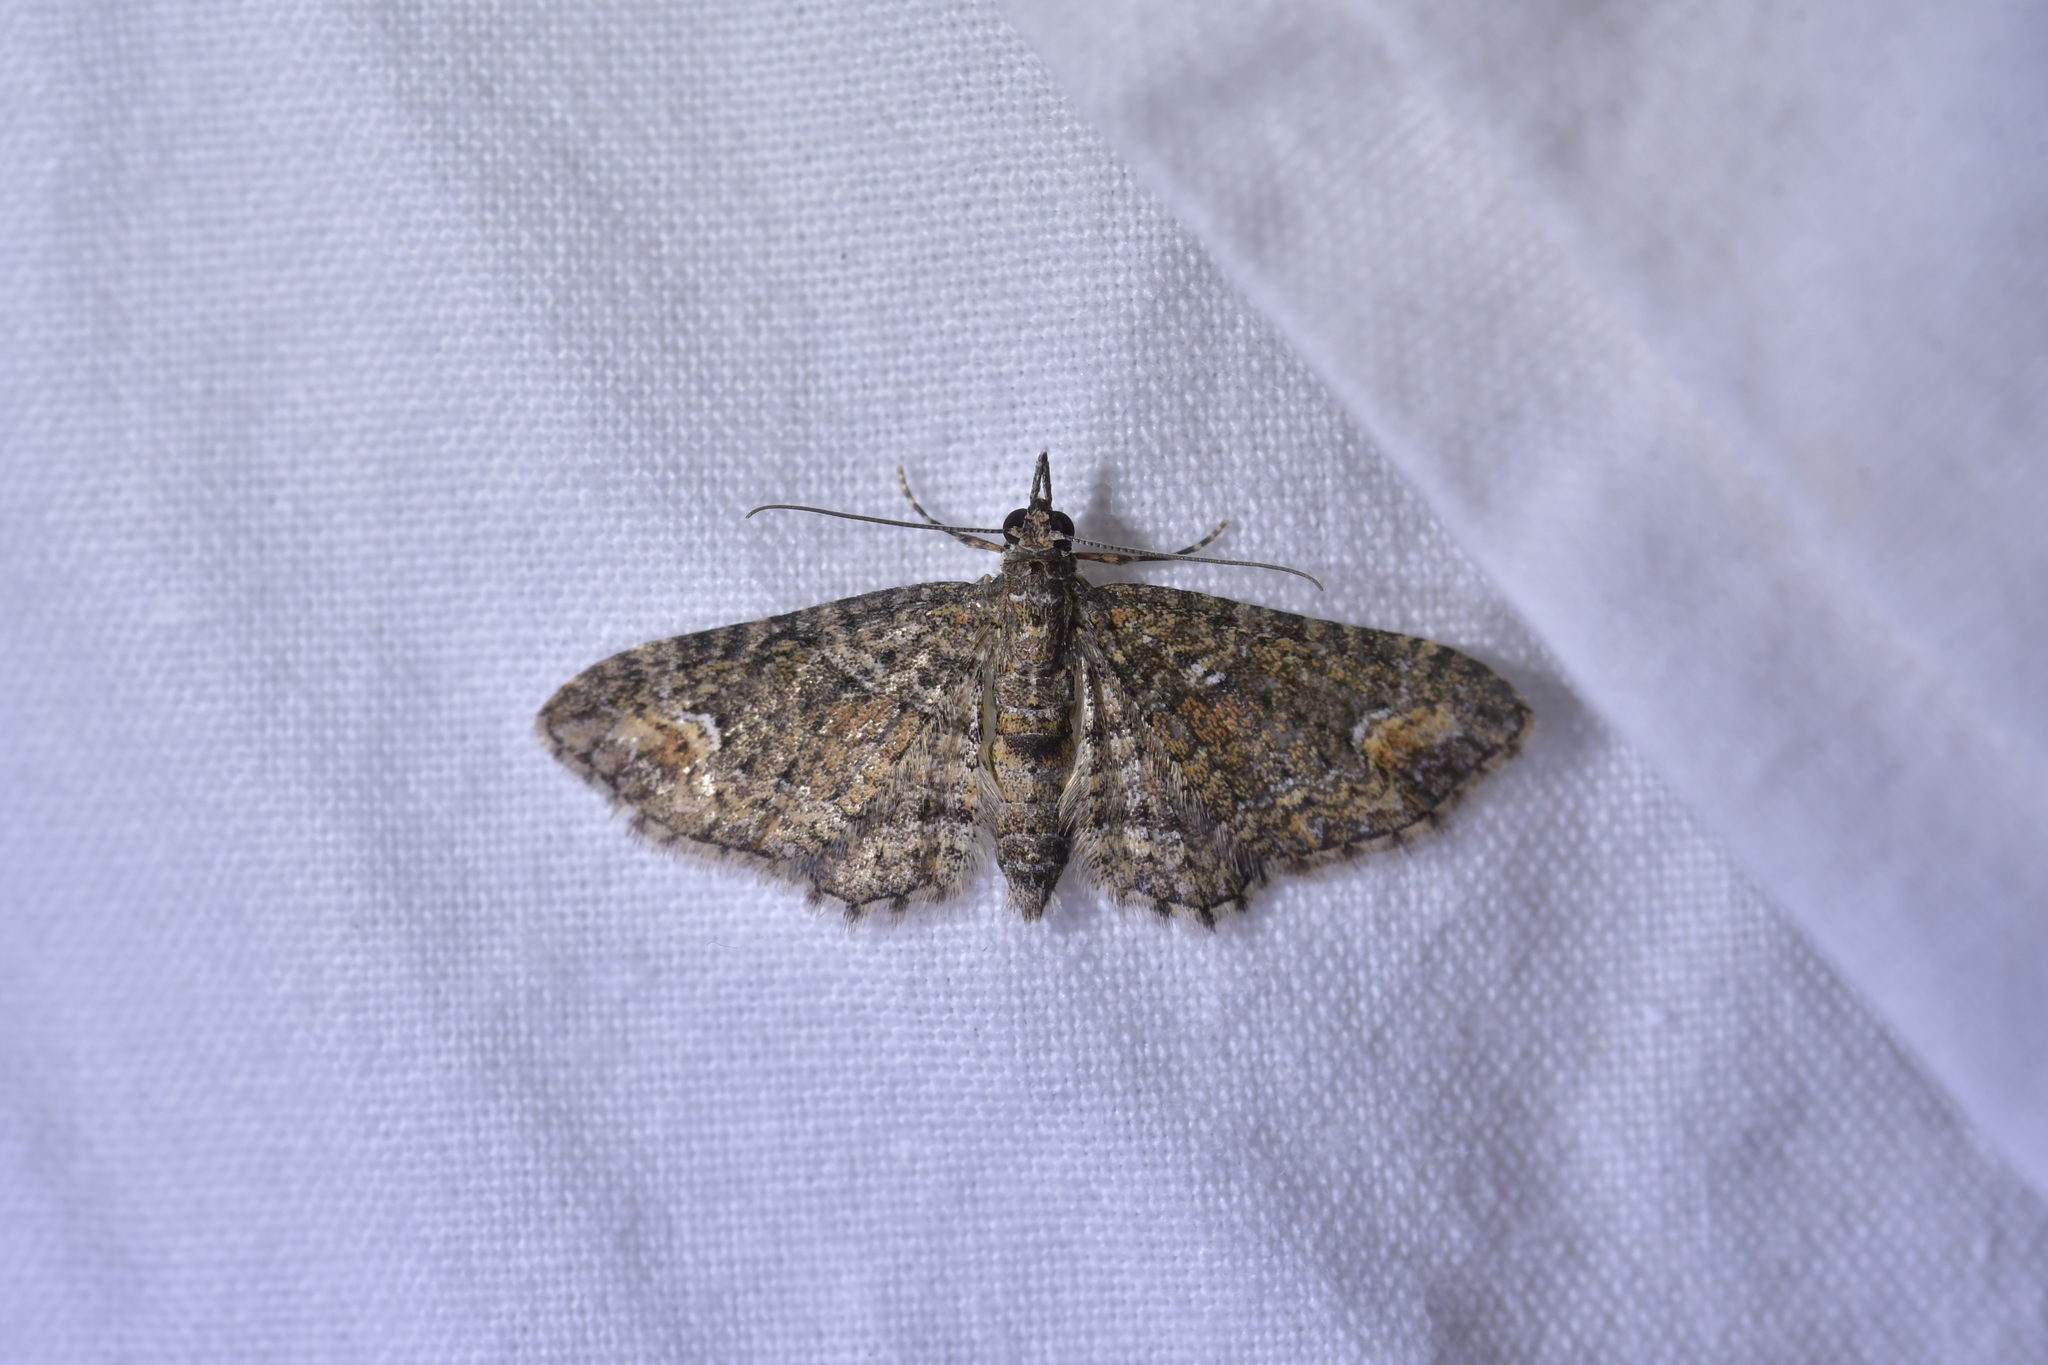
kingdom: Animalia
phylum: Arthropoda
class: Insecta
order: Lepidoptera
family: Geometridae
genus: Pasiphilodes
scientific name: Pasiphilodes testulata
